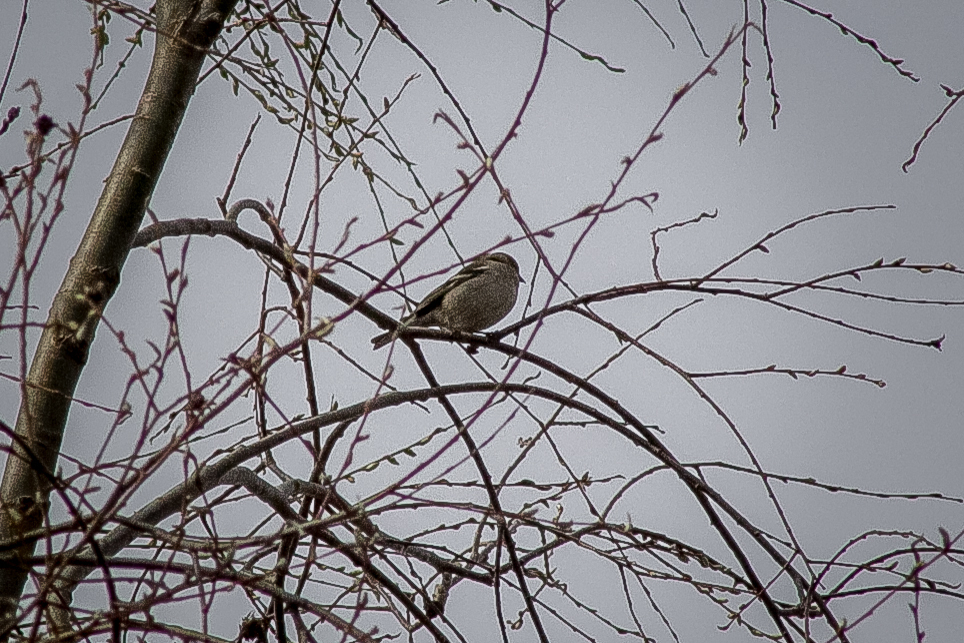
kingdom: Animalia
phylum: Chordata
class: Aves
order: Passeriformes
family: Fringillidae
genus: Fringilla
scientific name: Fringilla coelebs
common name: Common chaffinch
